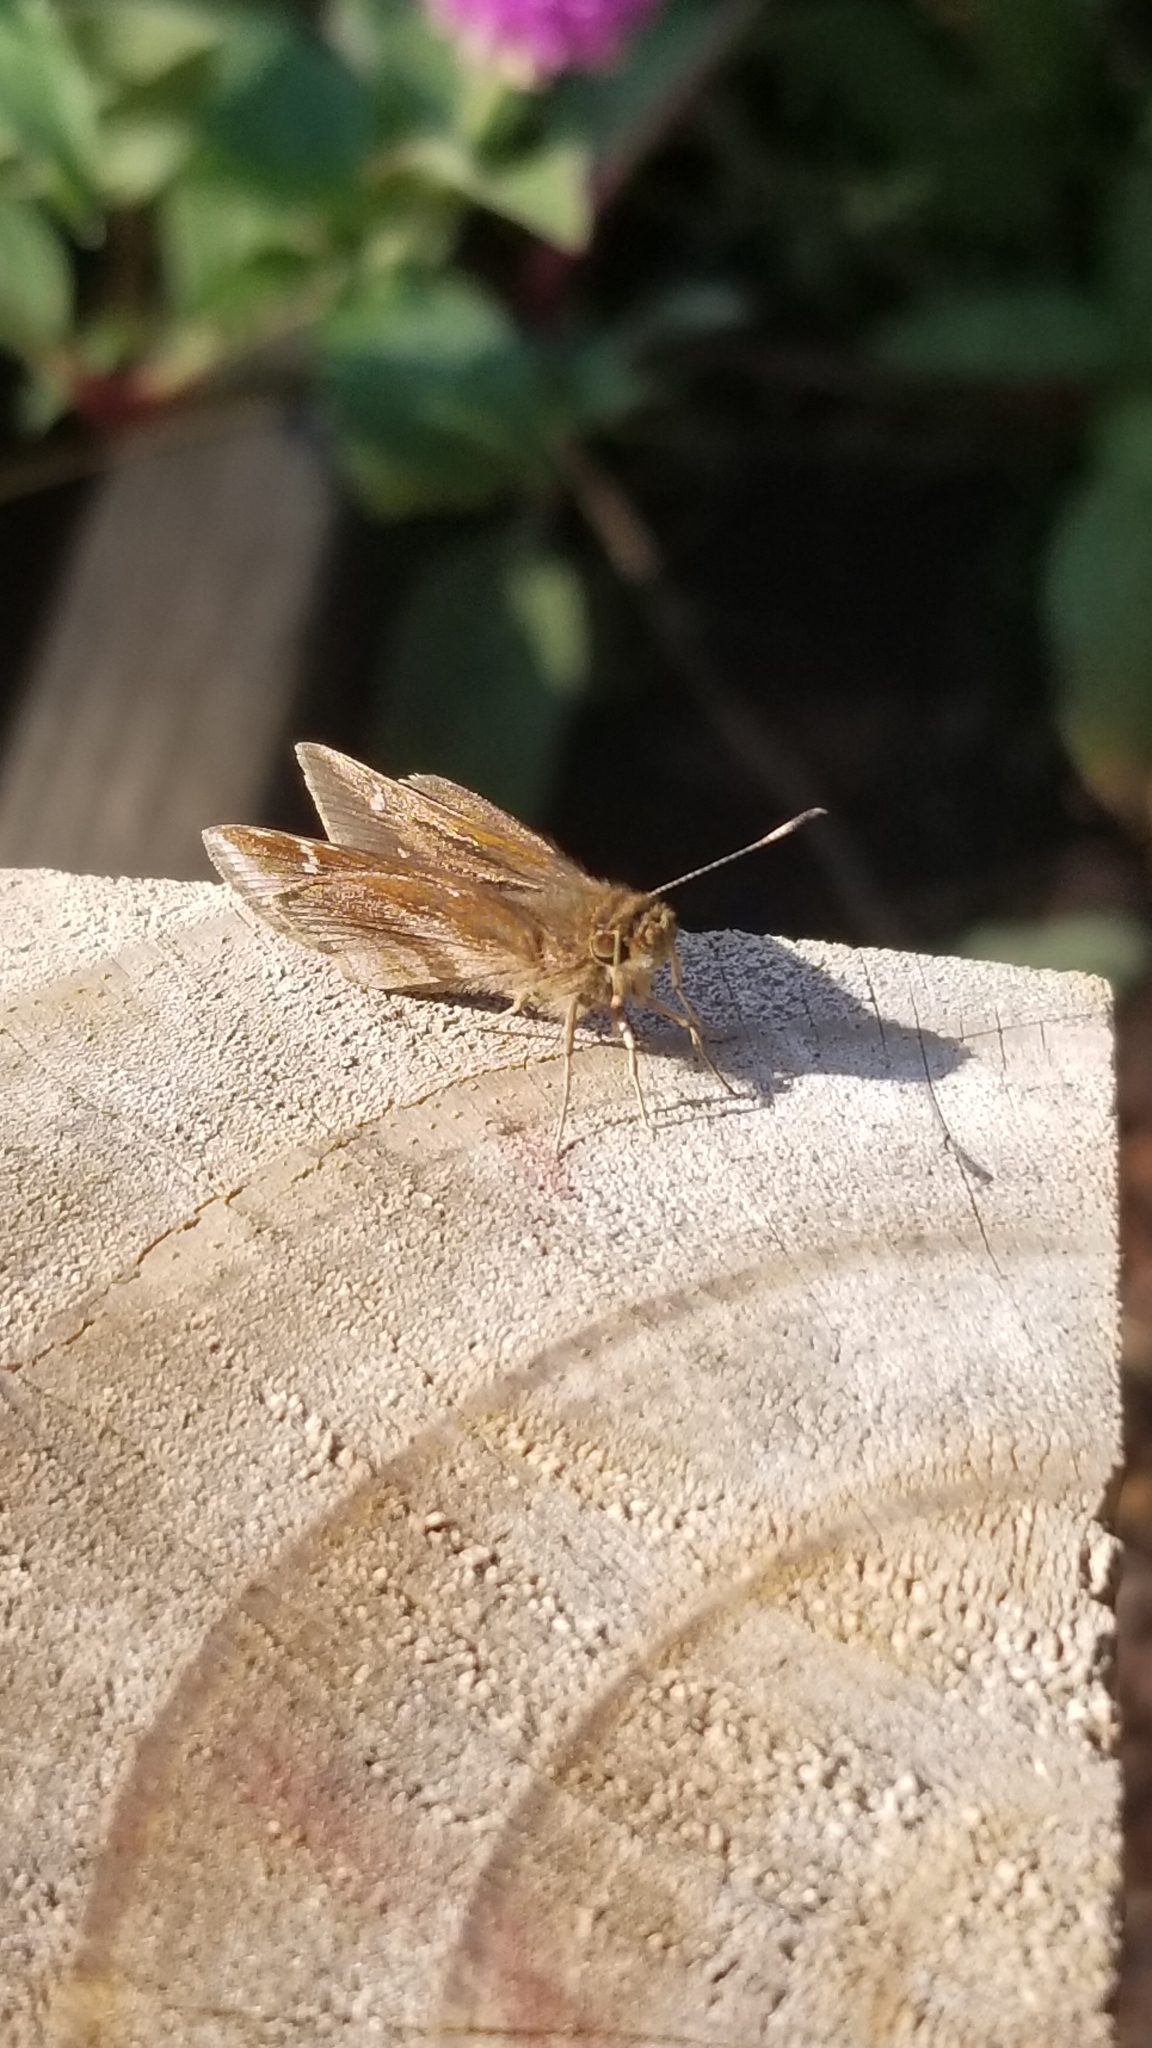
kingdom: Animalia
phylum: Arthropoda
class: Insecta
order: Lepidoptera
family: Hesperiidae
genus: Lerema
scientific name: Lerema accius
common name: Clouded skipper
